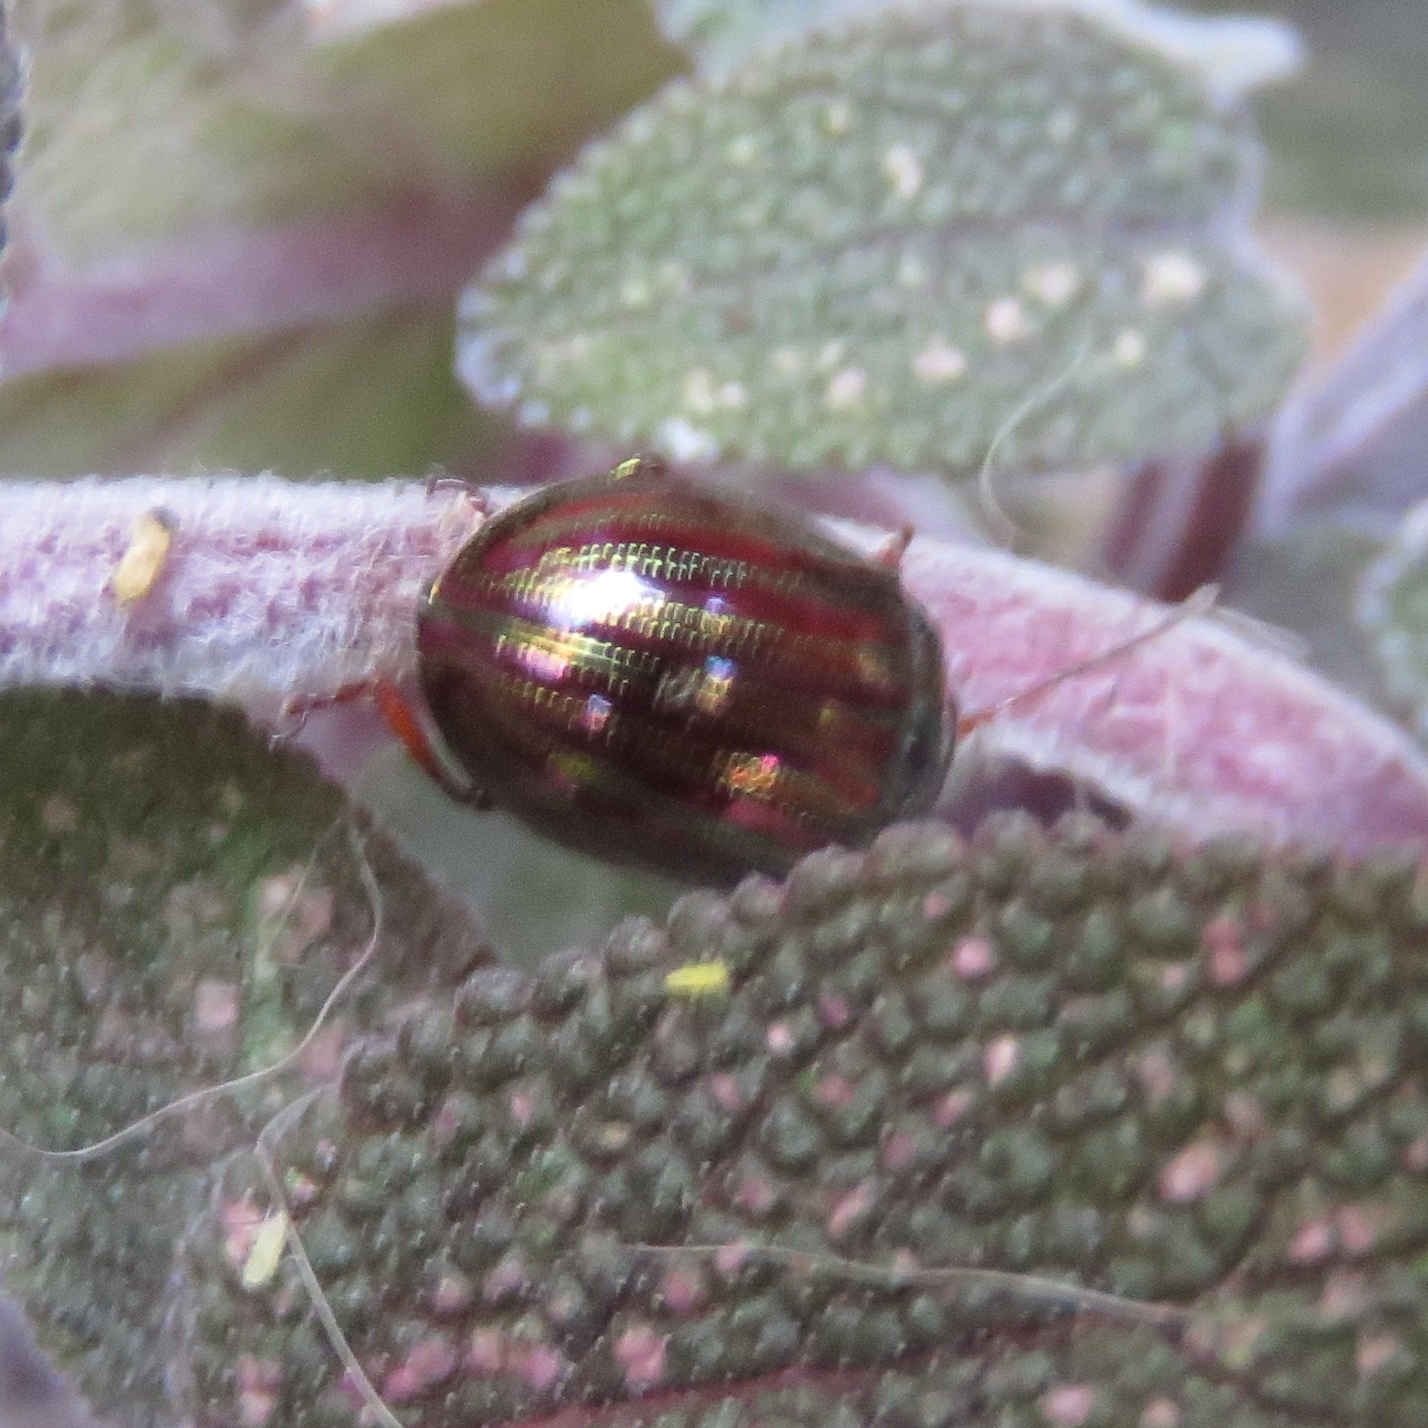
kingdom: Animalia
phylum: Arthropoda
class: Insecta
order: Coleoptera
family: Chrysomelidae
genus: Chrysolina
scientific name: Chrysolina americana
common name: Rosemary beetle
